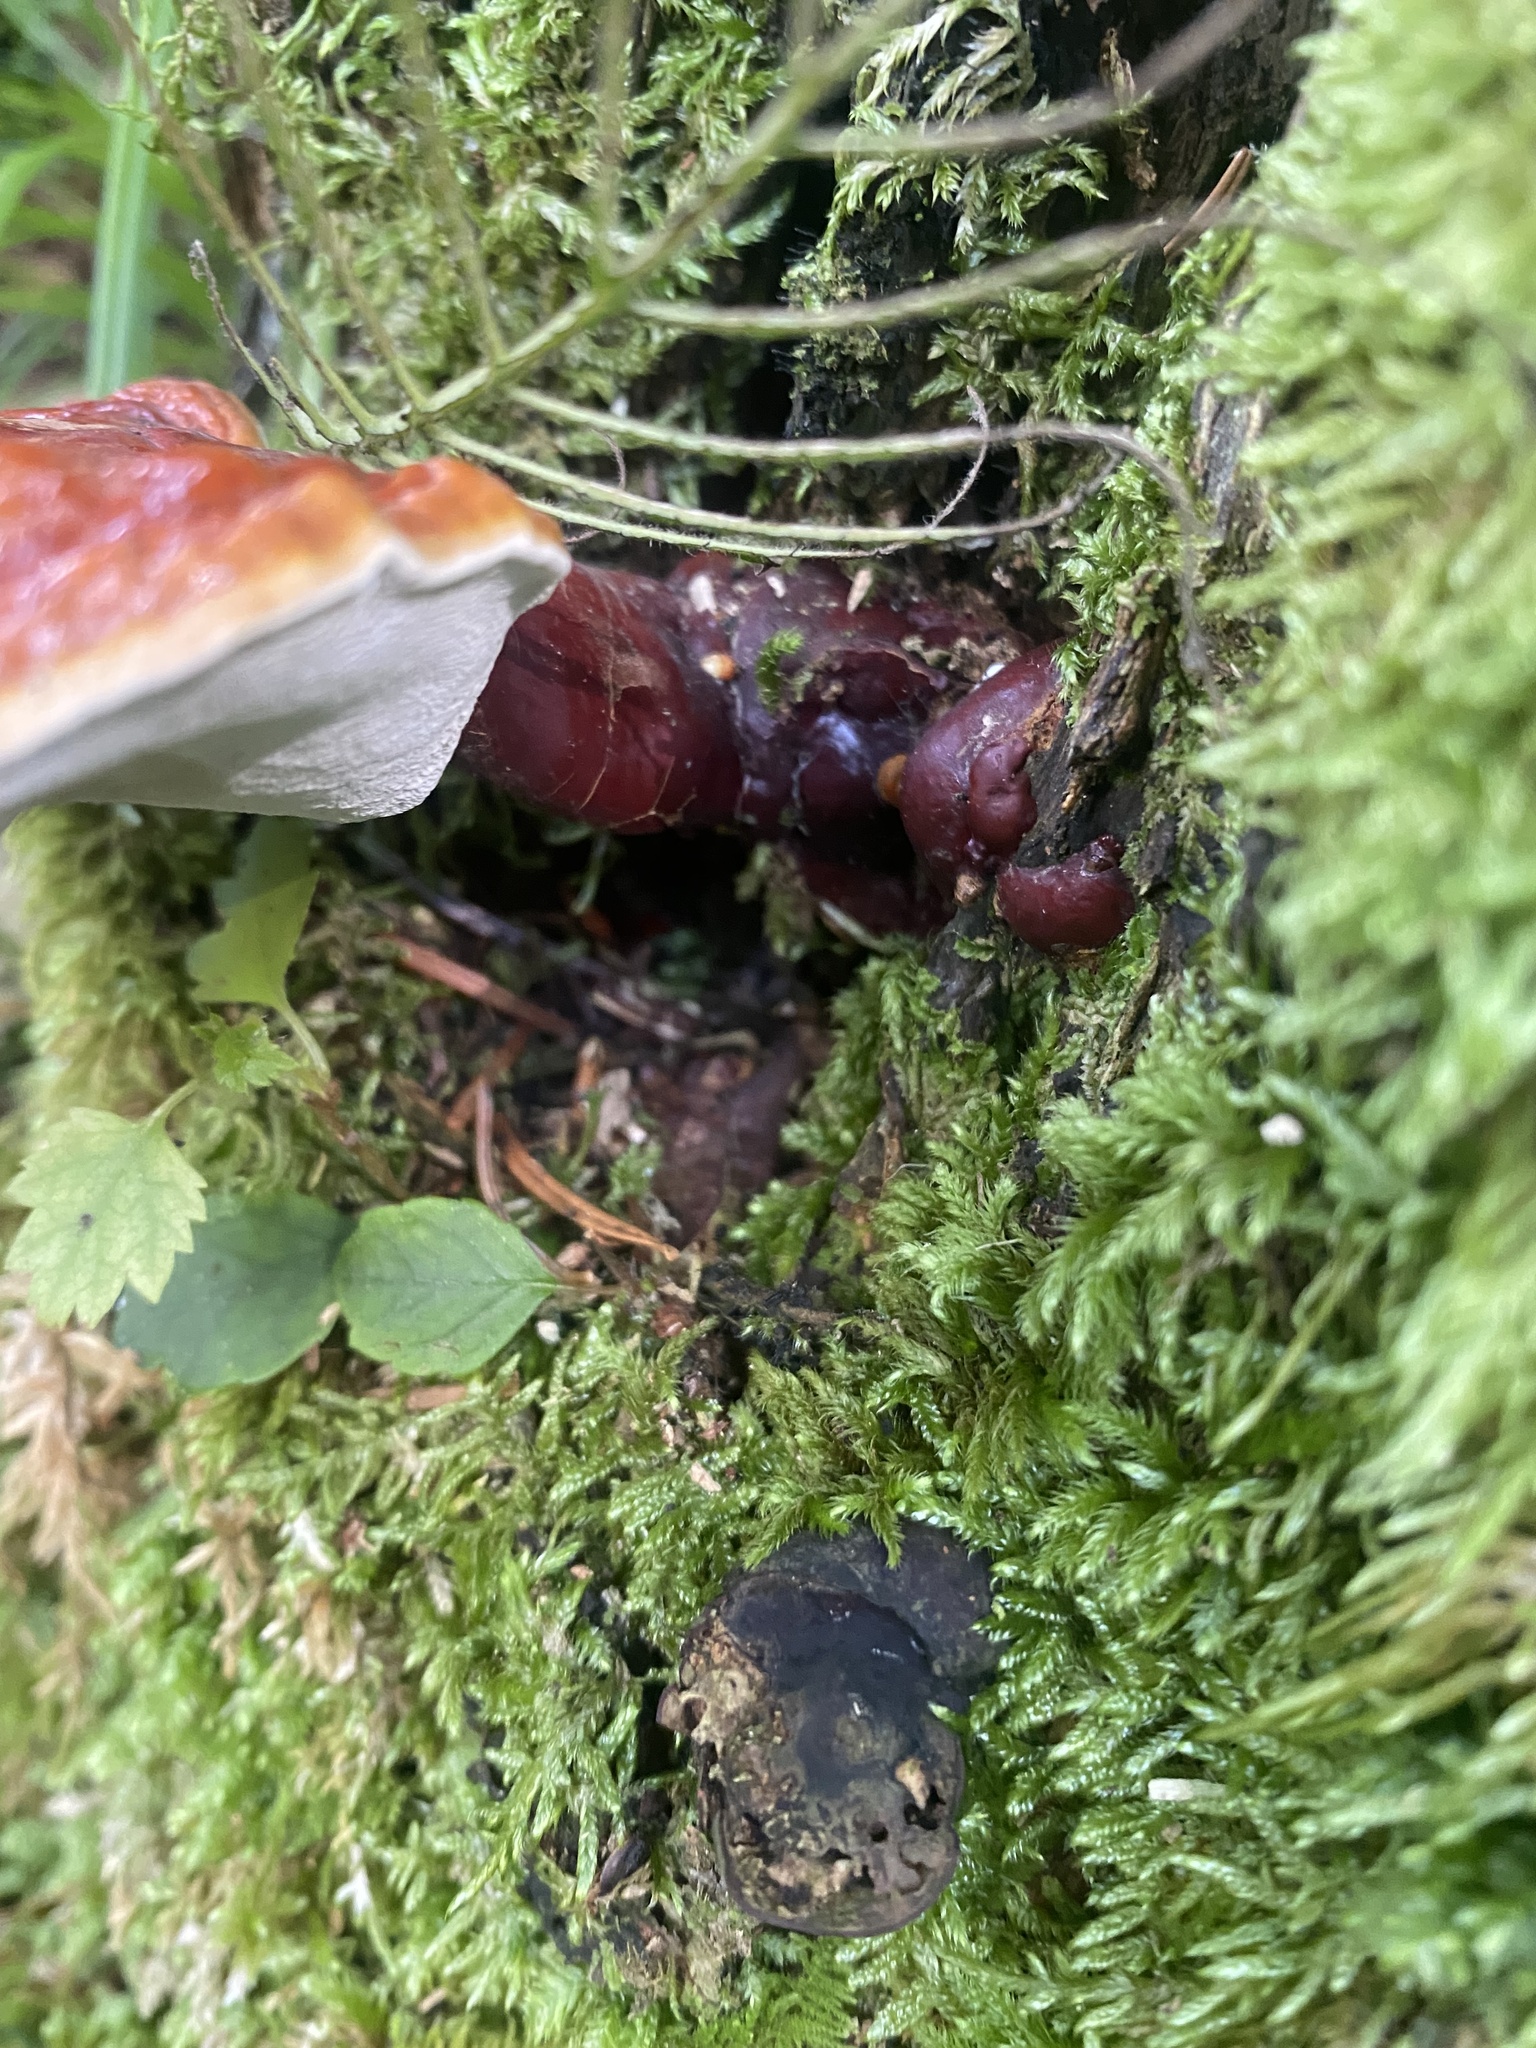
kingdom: Fungi
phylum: Basidiomycota
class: Agaricomycetes
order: Polyporales
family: Polyporaceae
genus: Ganoderma
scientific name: Ganoderma lucidum
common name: Lacquered bracket
